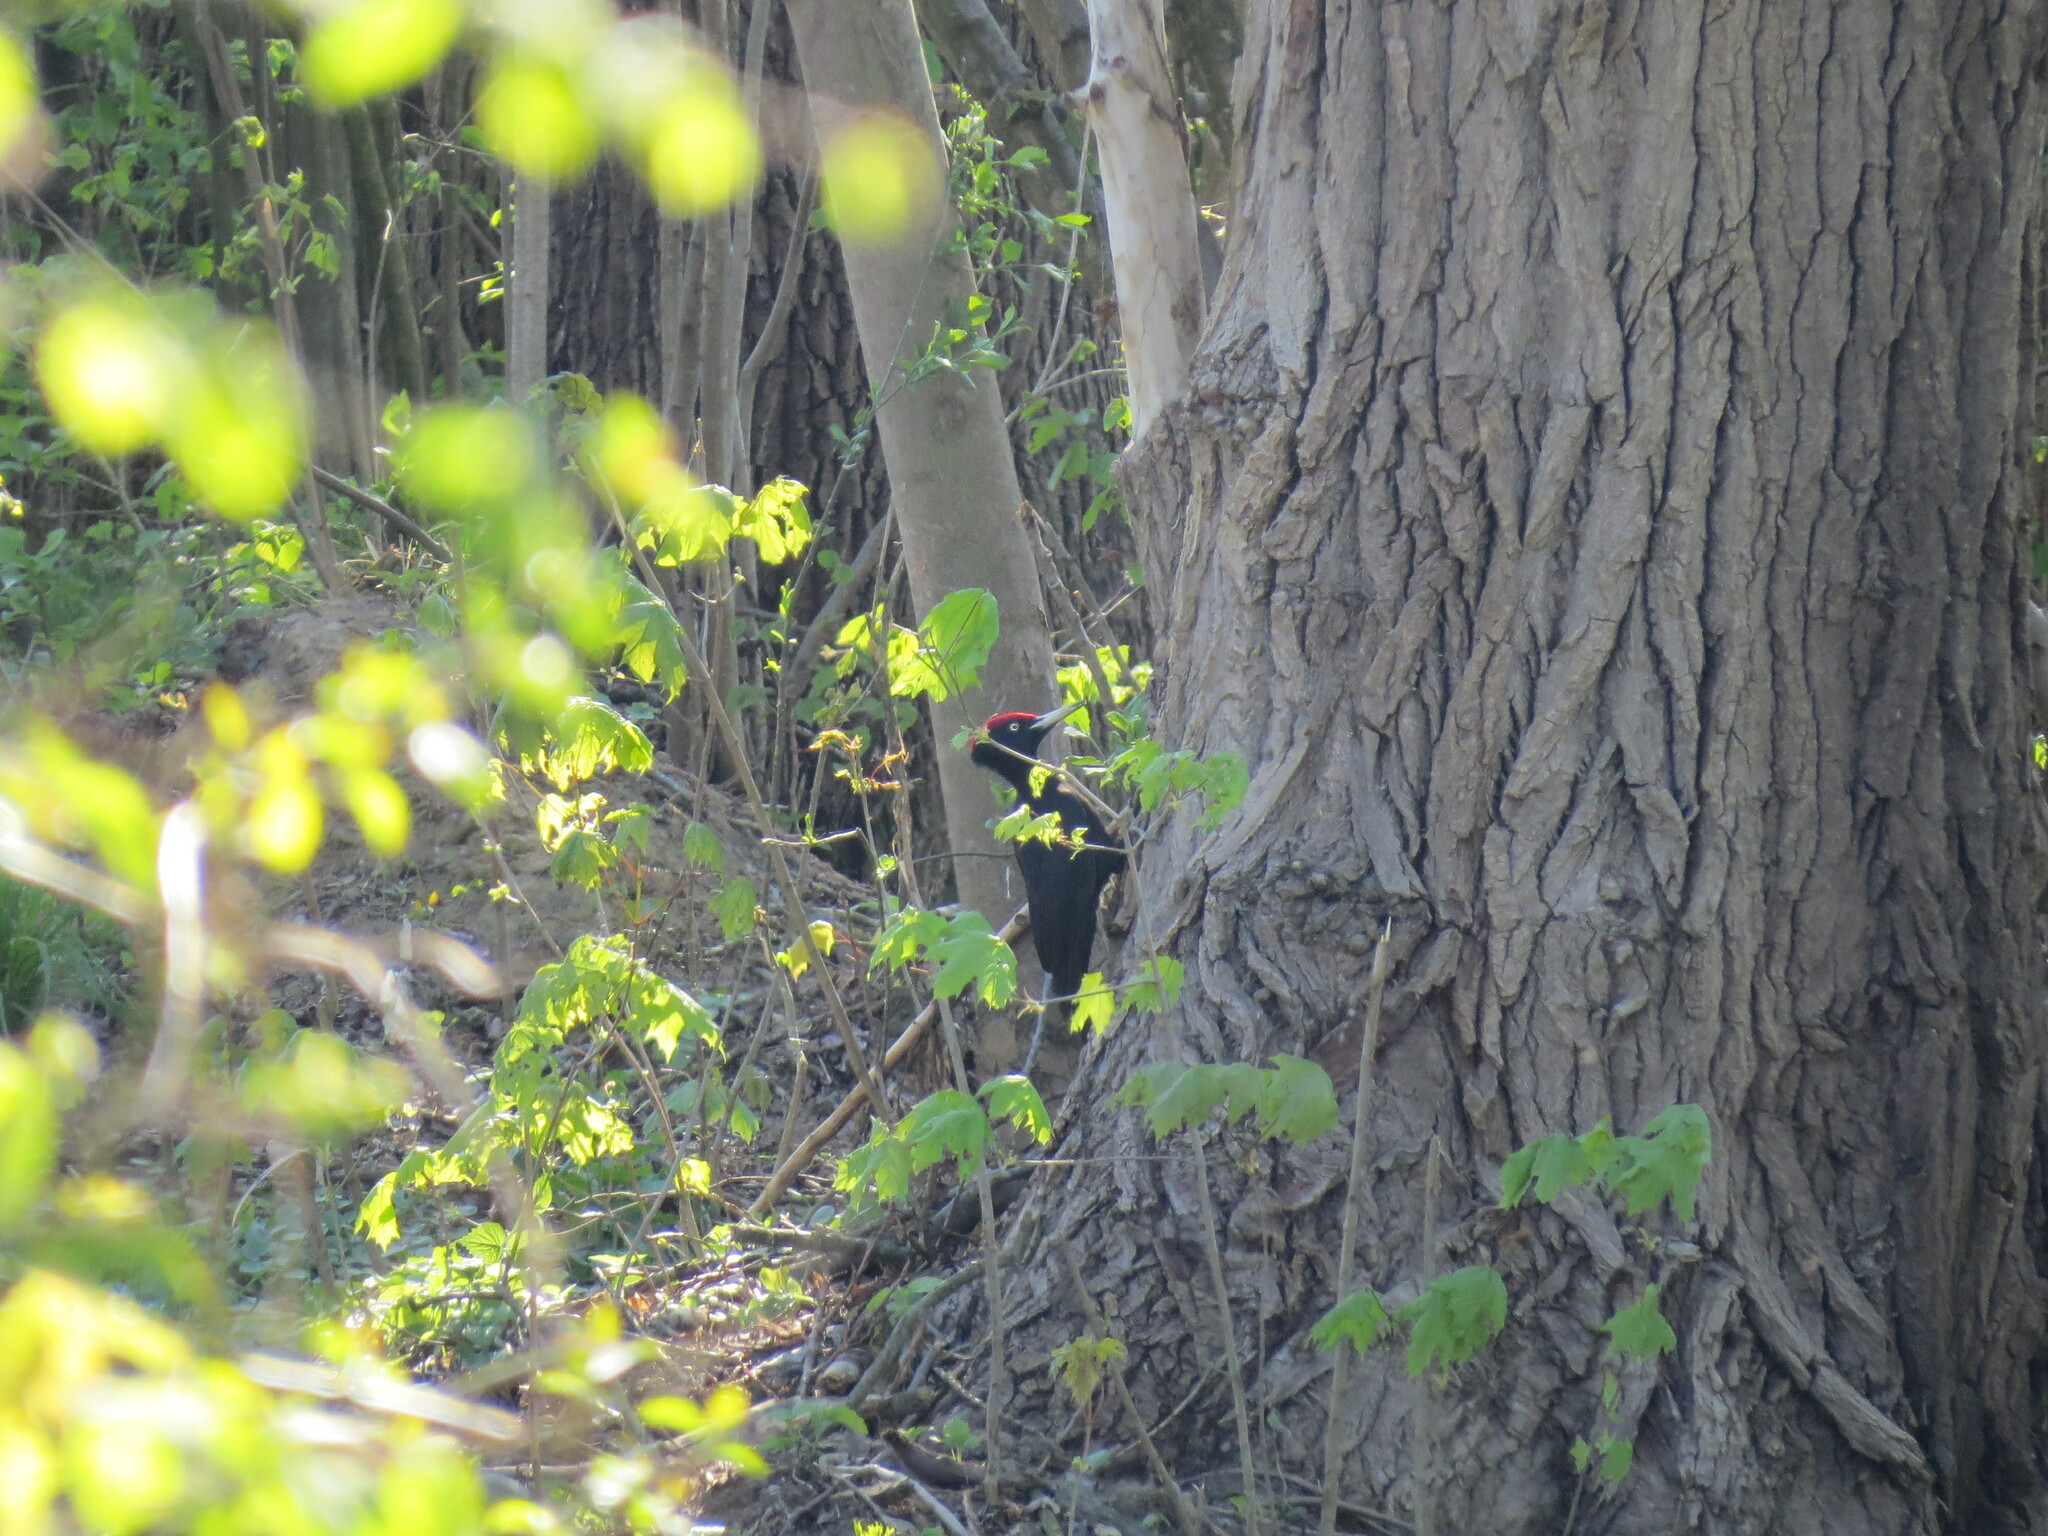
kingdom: Animalia
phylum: Chordata
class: Aves
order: Piciformes
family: Picidae
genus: Dryocopus
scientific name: Dryocopus martius
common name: Black woodpecker
